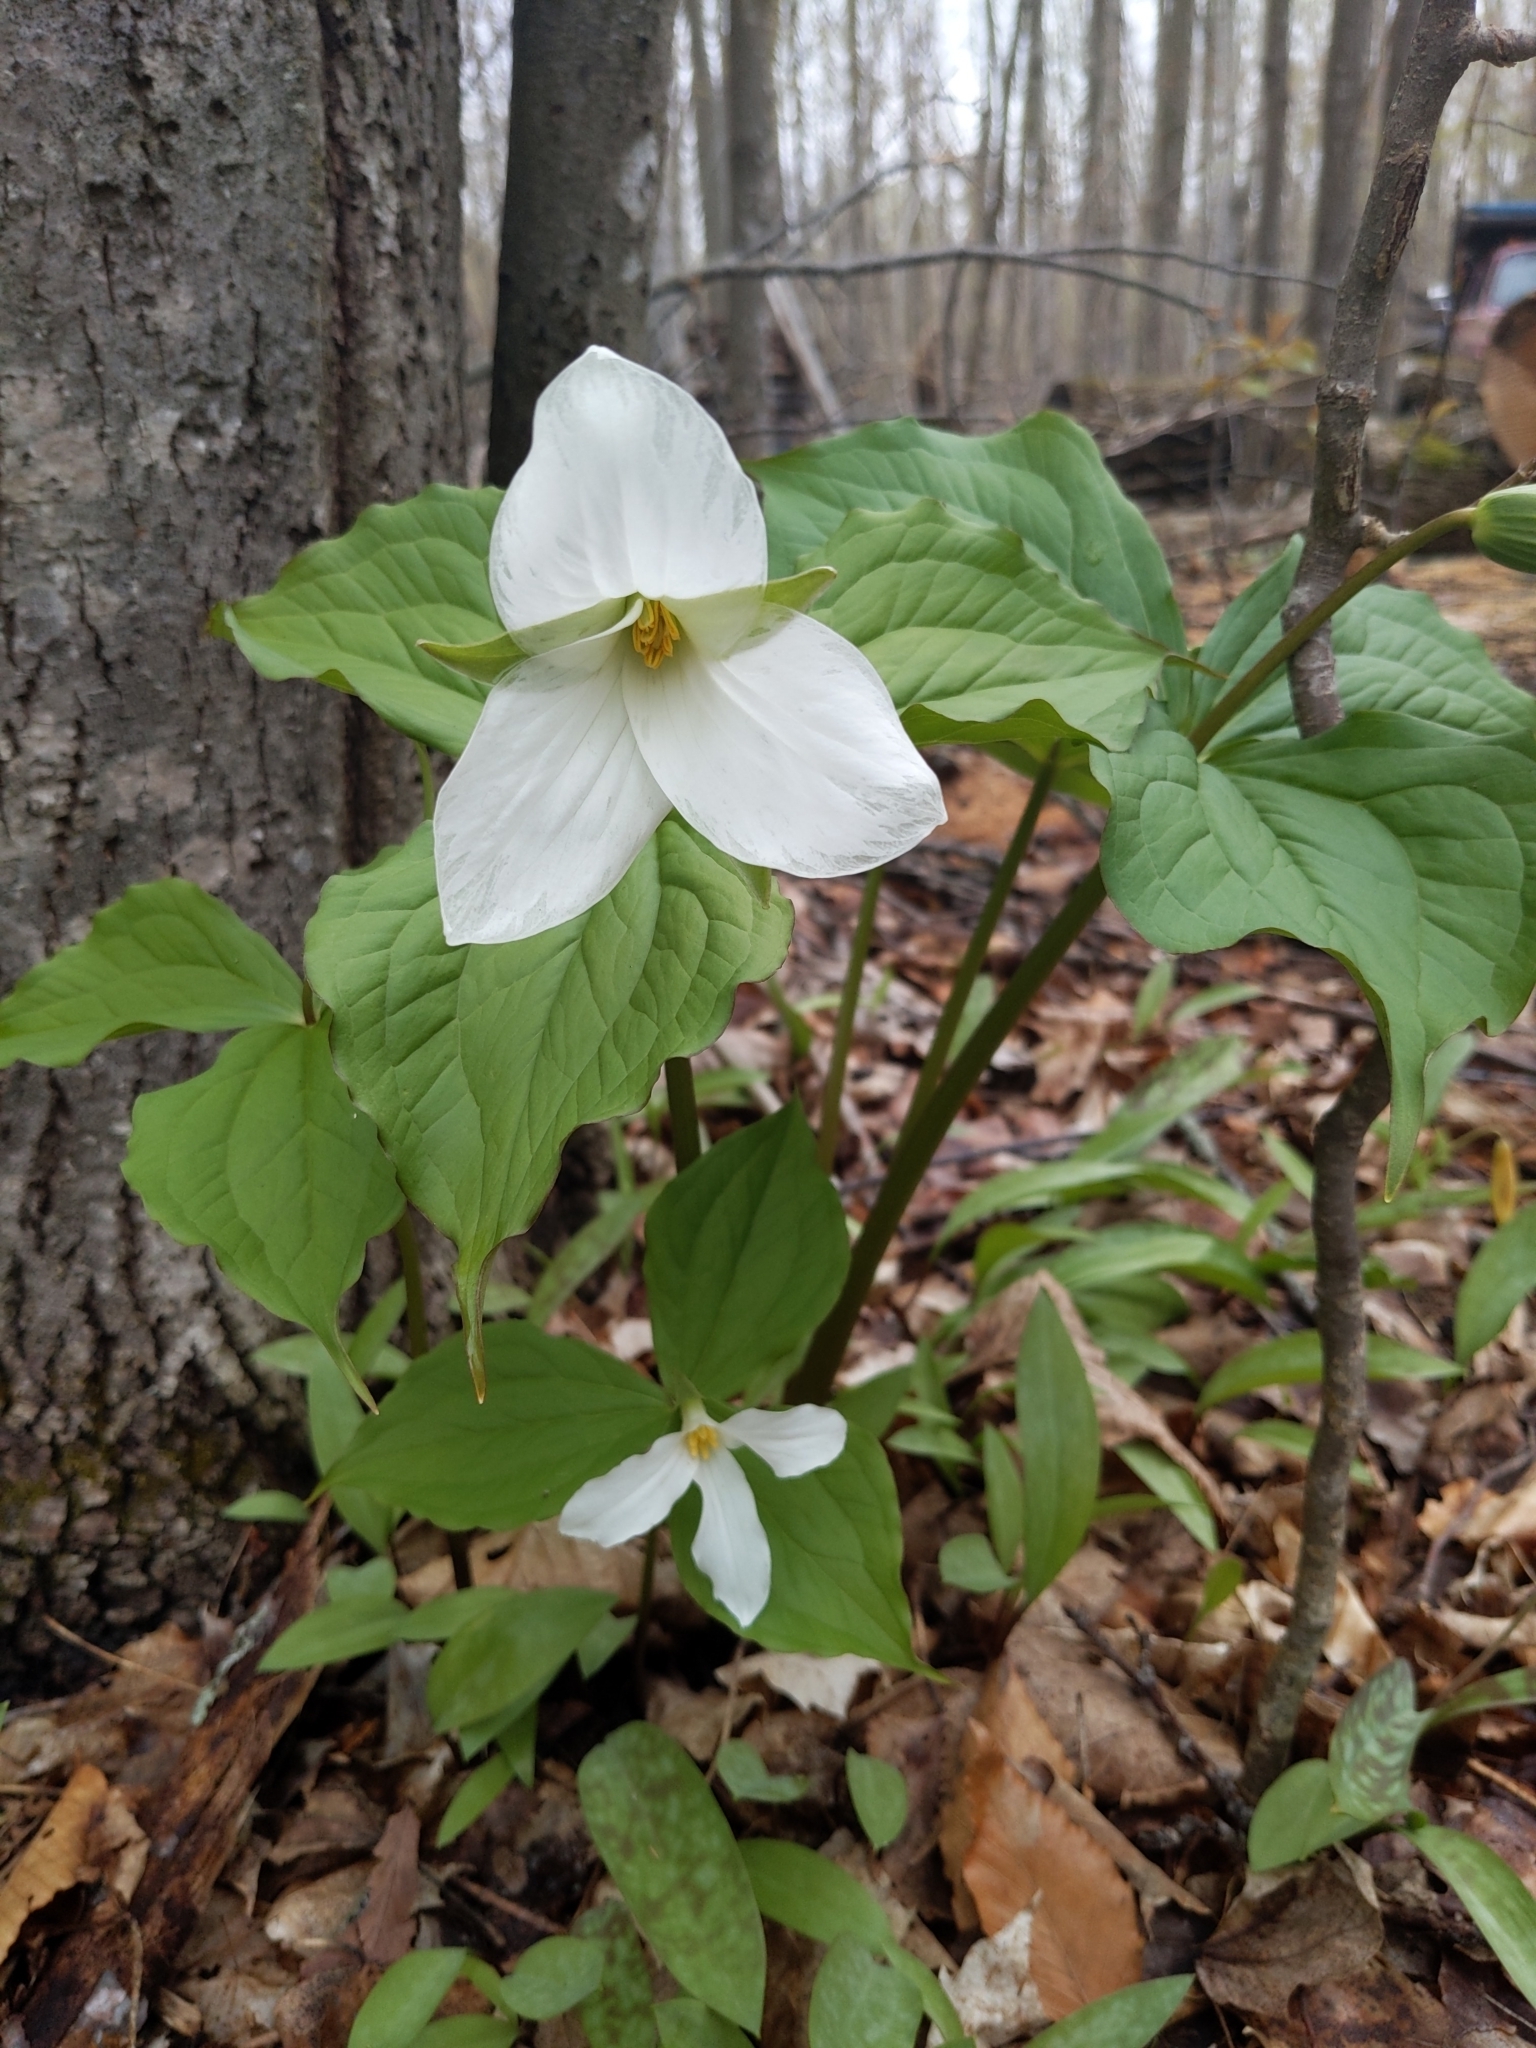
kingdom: Plantae
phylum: Tracheophyta
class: Liliopsida
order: Liliales
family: Melanthiaceae
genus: Trillium
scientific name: Trillium grandiflorum
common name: Great white trillium
